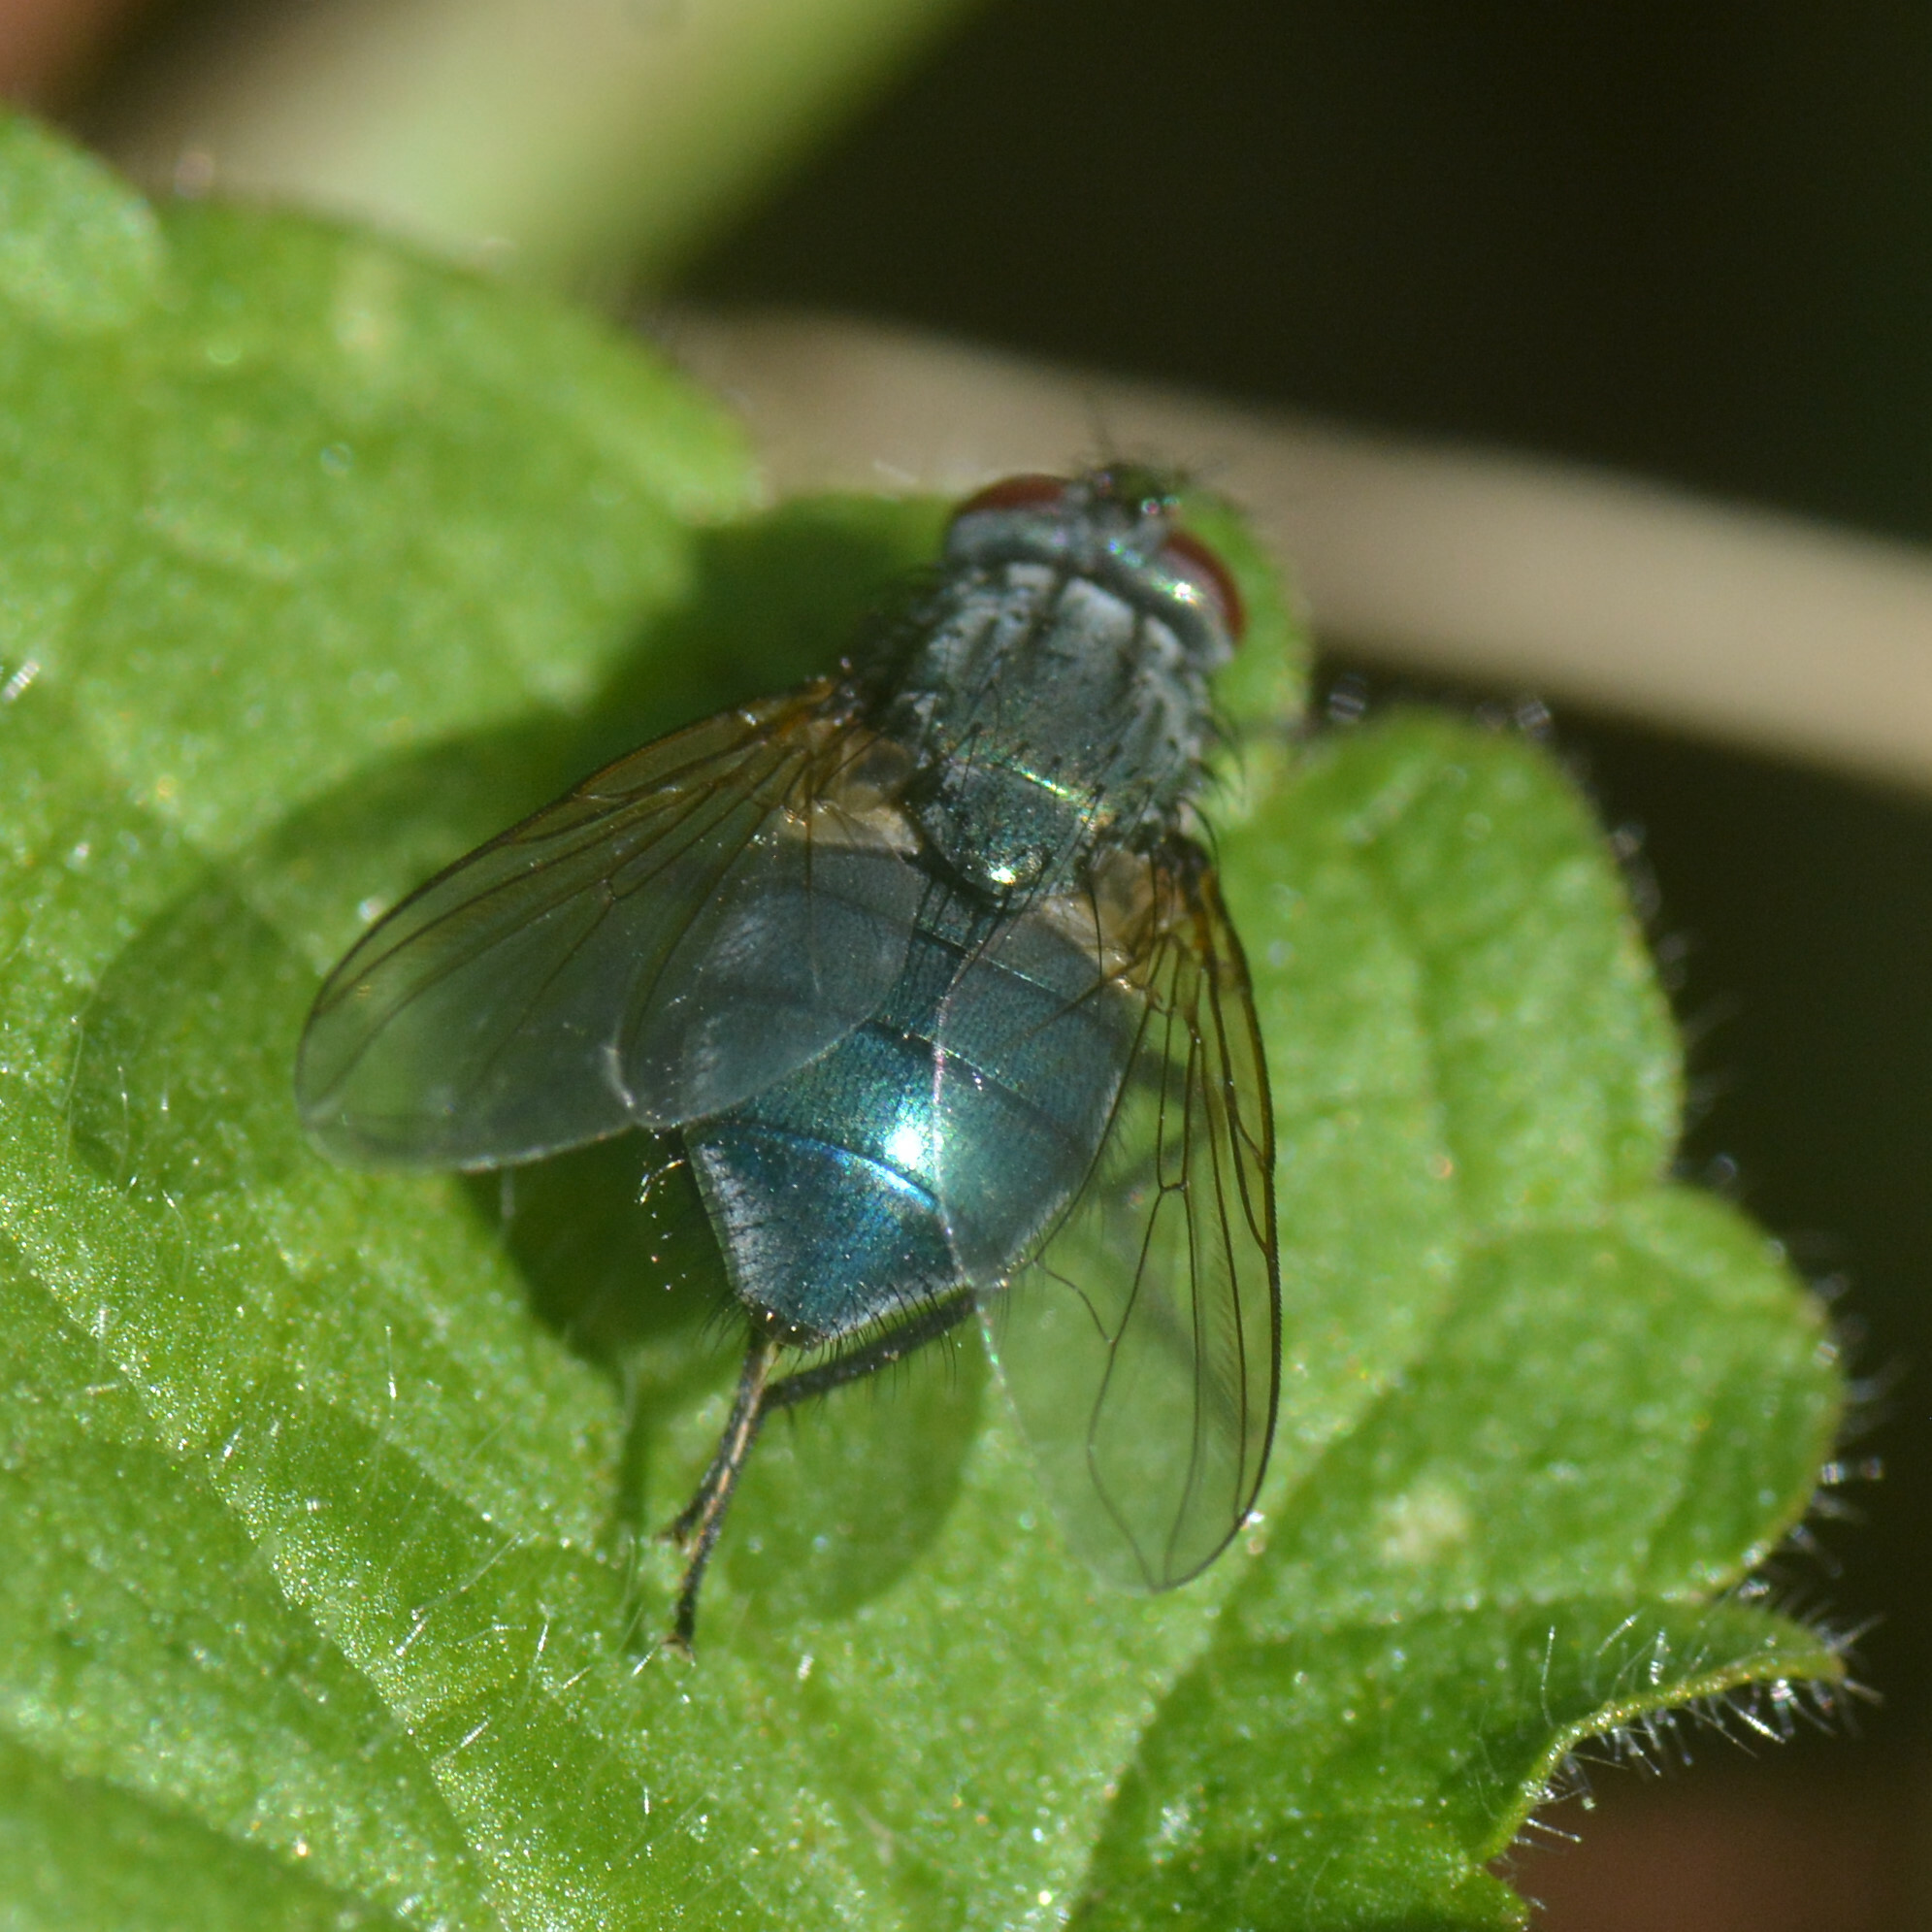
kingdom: Animalia
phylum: Arthropoda
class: Insecta
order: Diptera
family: Muscidae
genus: Dasyphora
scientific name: Dasyphora cyanella
